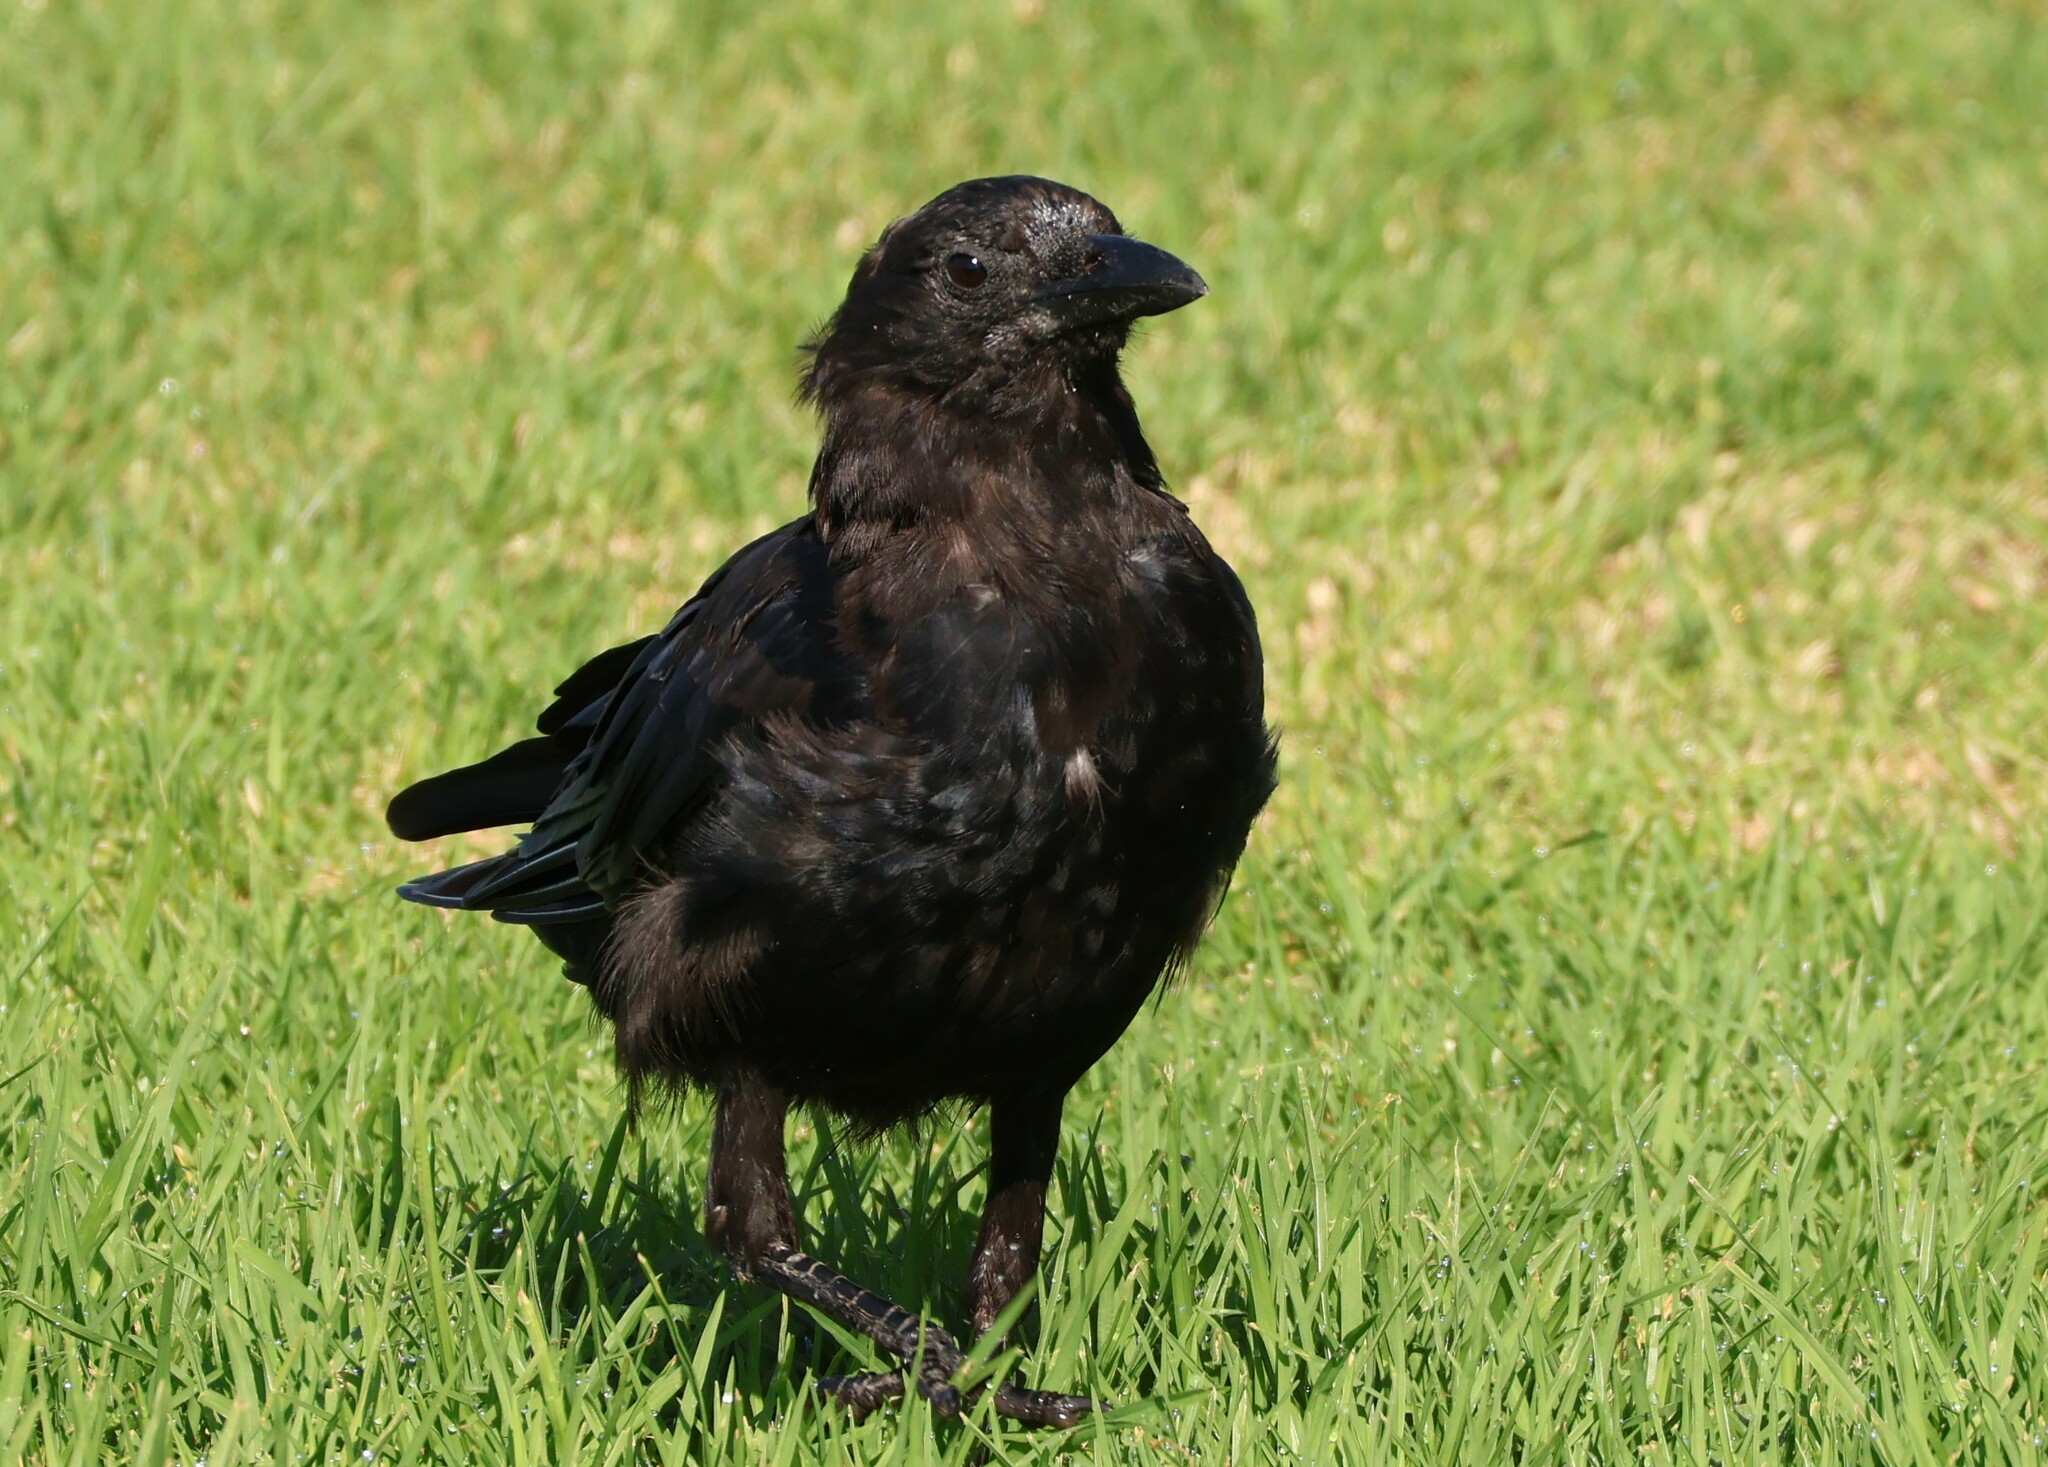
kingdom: Animalia
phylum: Chordata
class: Aves
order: Passeriformes
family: Corvidae
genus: Corvus
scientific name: Corvus brachyrhynchos
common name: American crow
